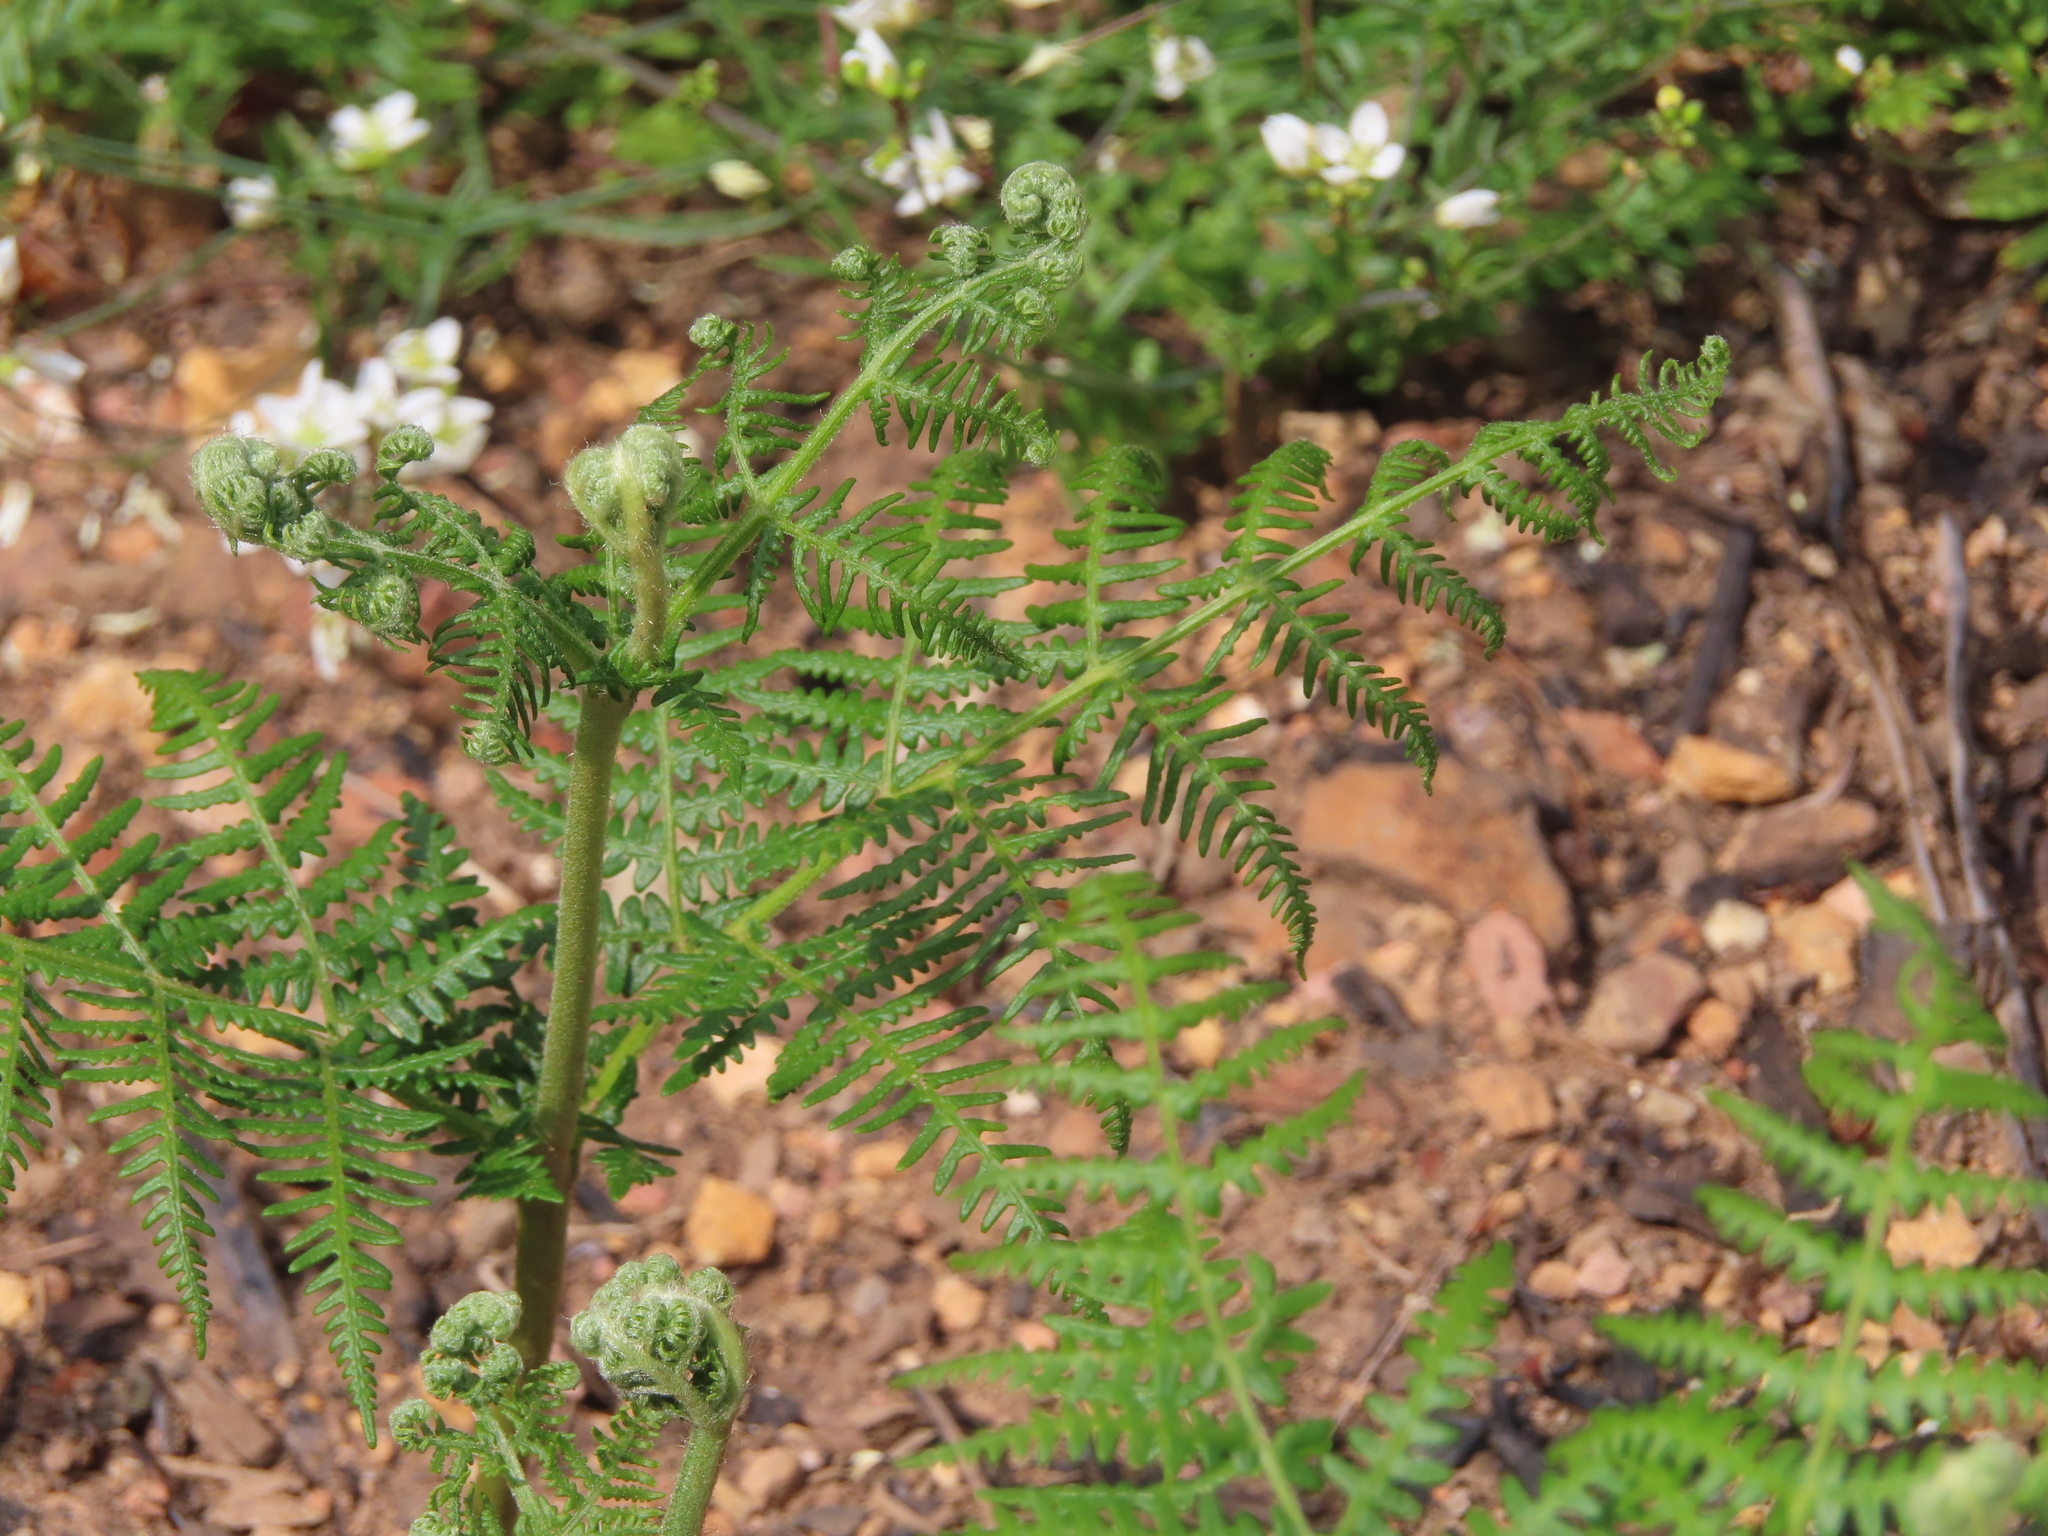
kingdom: Plantae
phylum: Tracheophyta
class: Polypodiopsida
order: Polypodiales
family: Dennstaedtiaceae
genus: Pteridium
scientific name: Pteridium aquilinum
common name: Bracken
